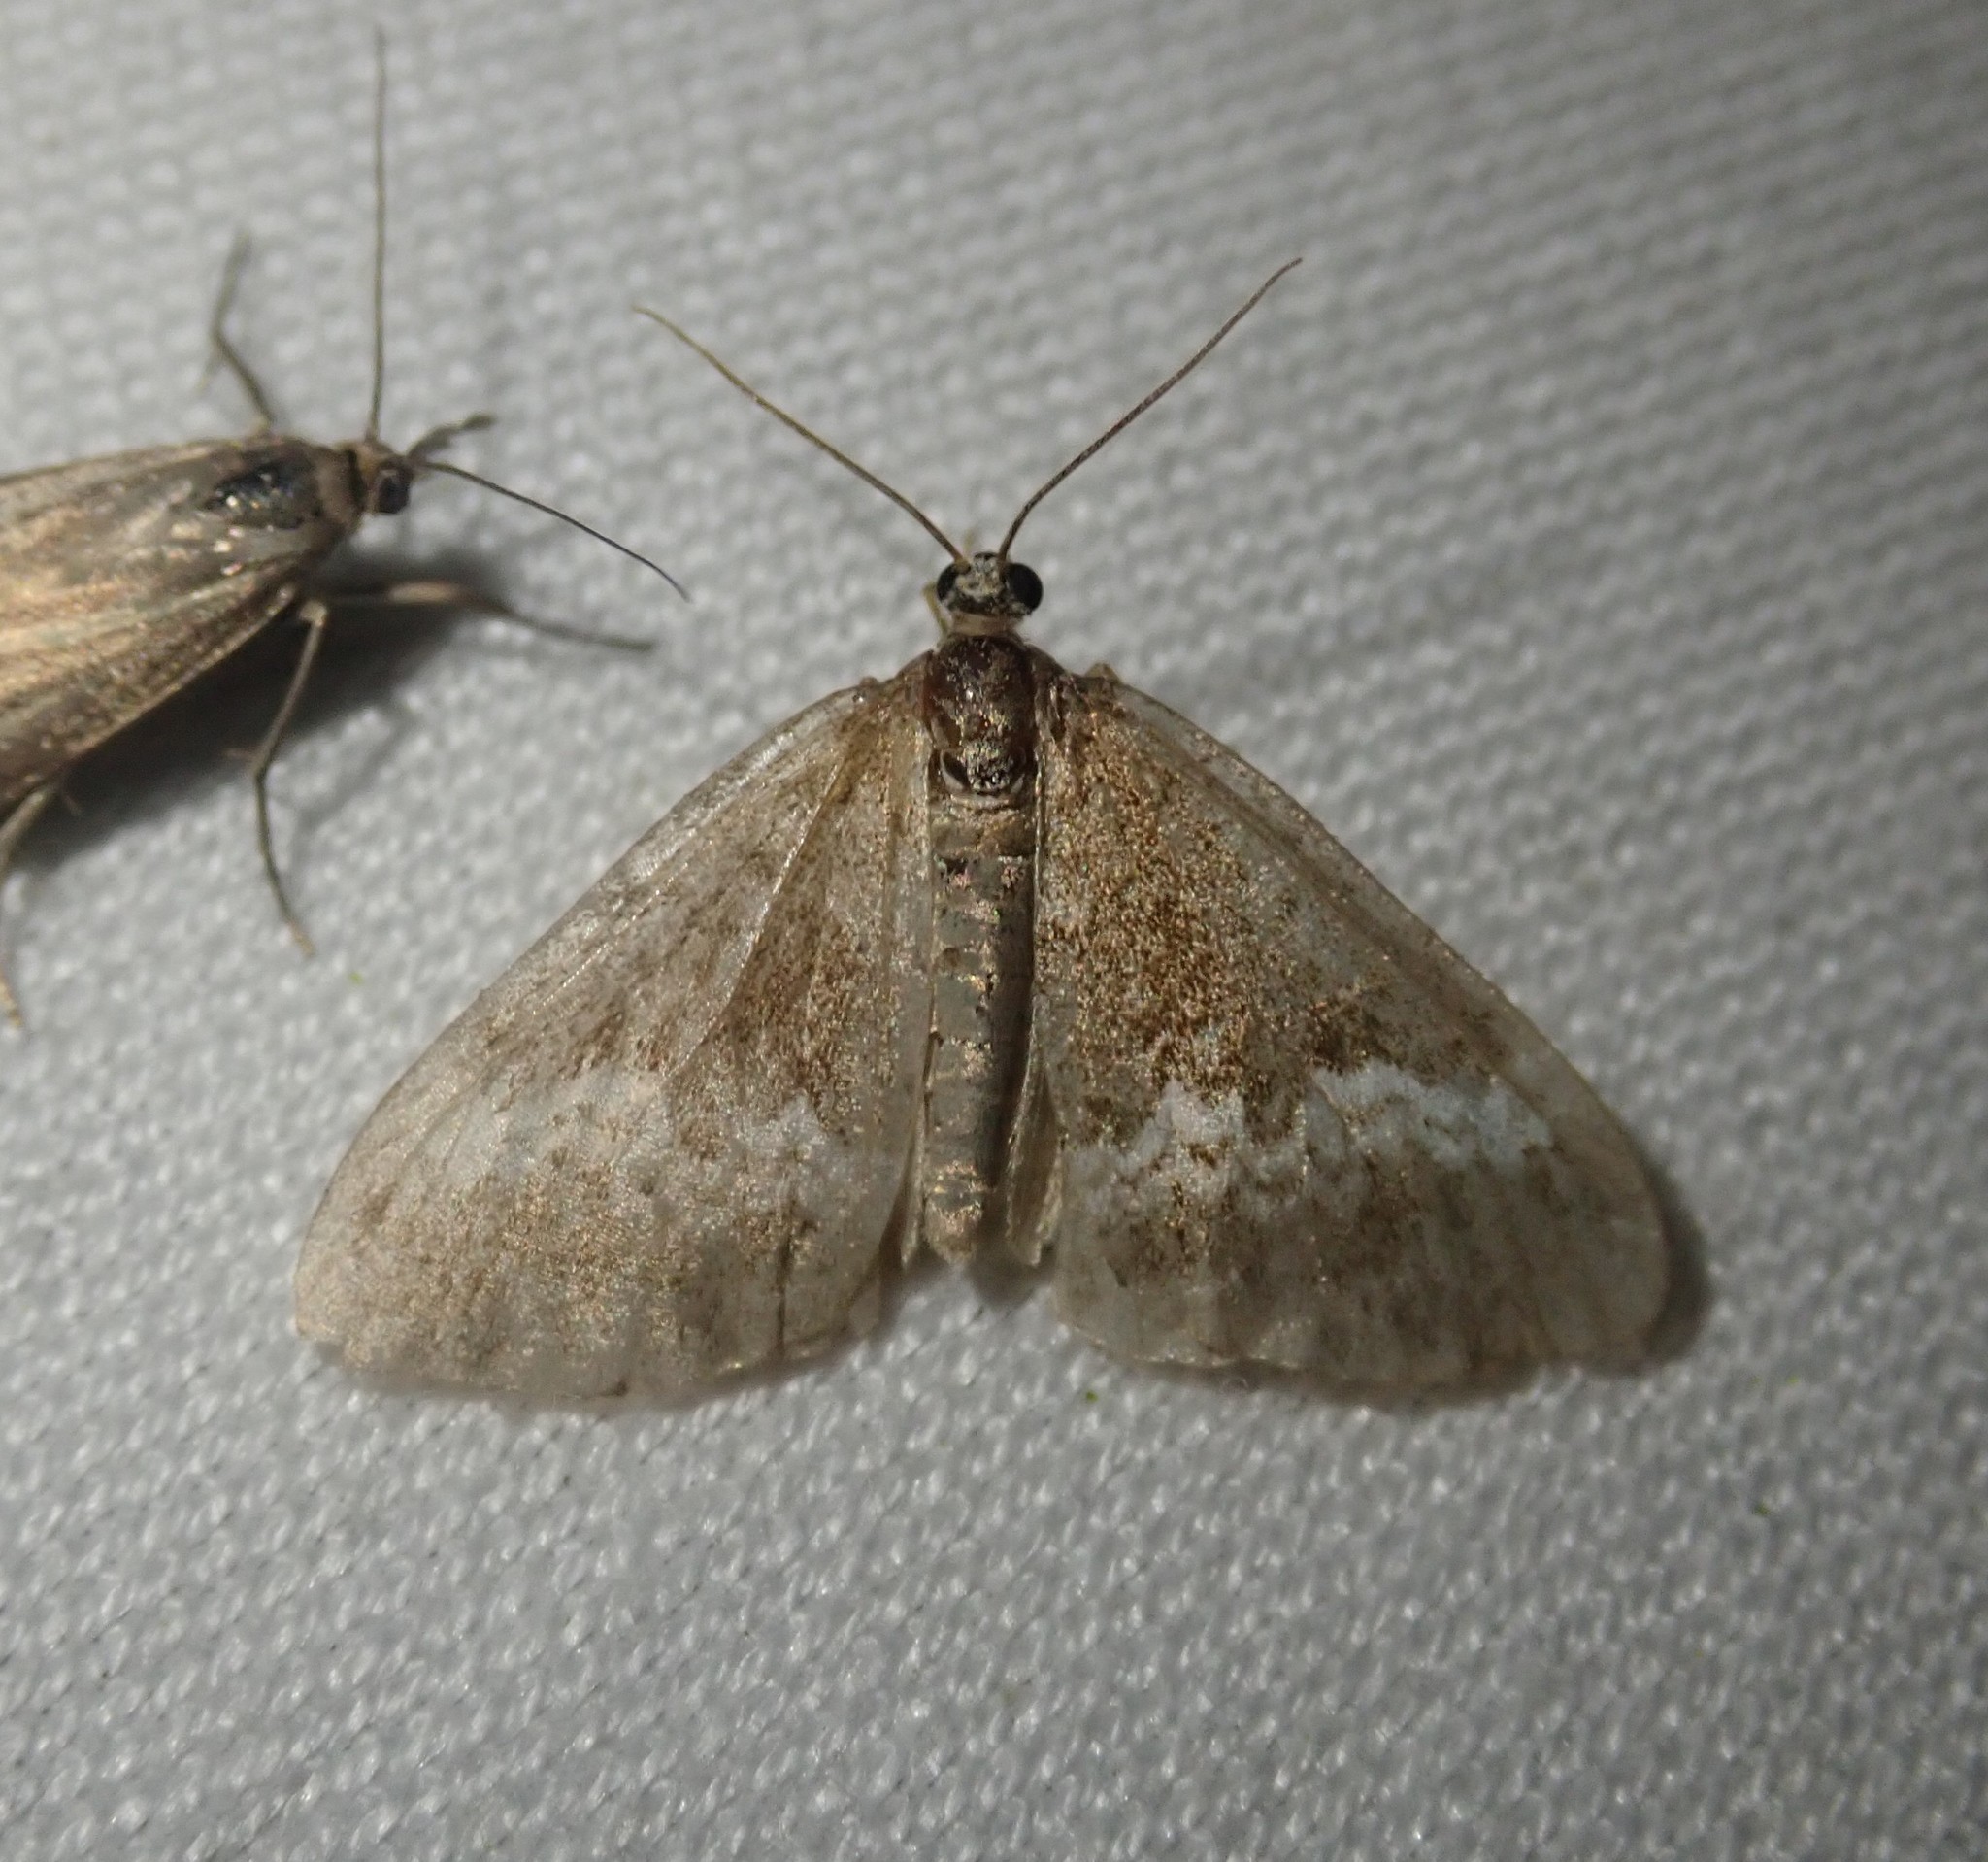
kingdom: Animalia
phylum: Arthropoda
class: Insecta
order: Lepidoptera
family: Geometridae
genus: Perizoma
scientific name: Perizoma alchemillata
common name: Small rivulet
